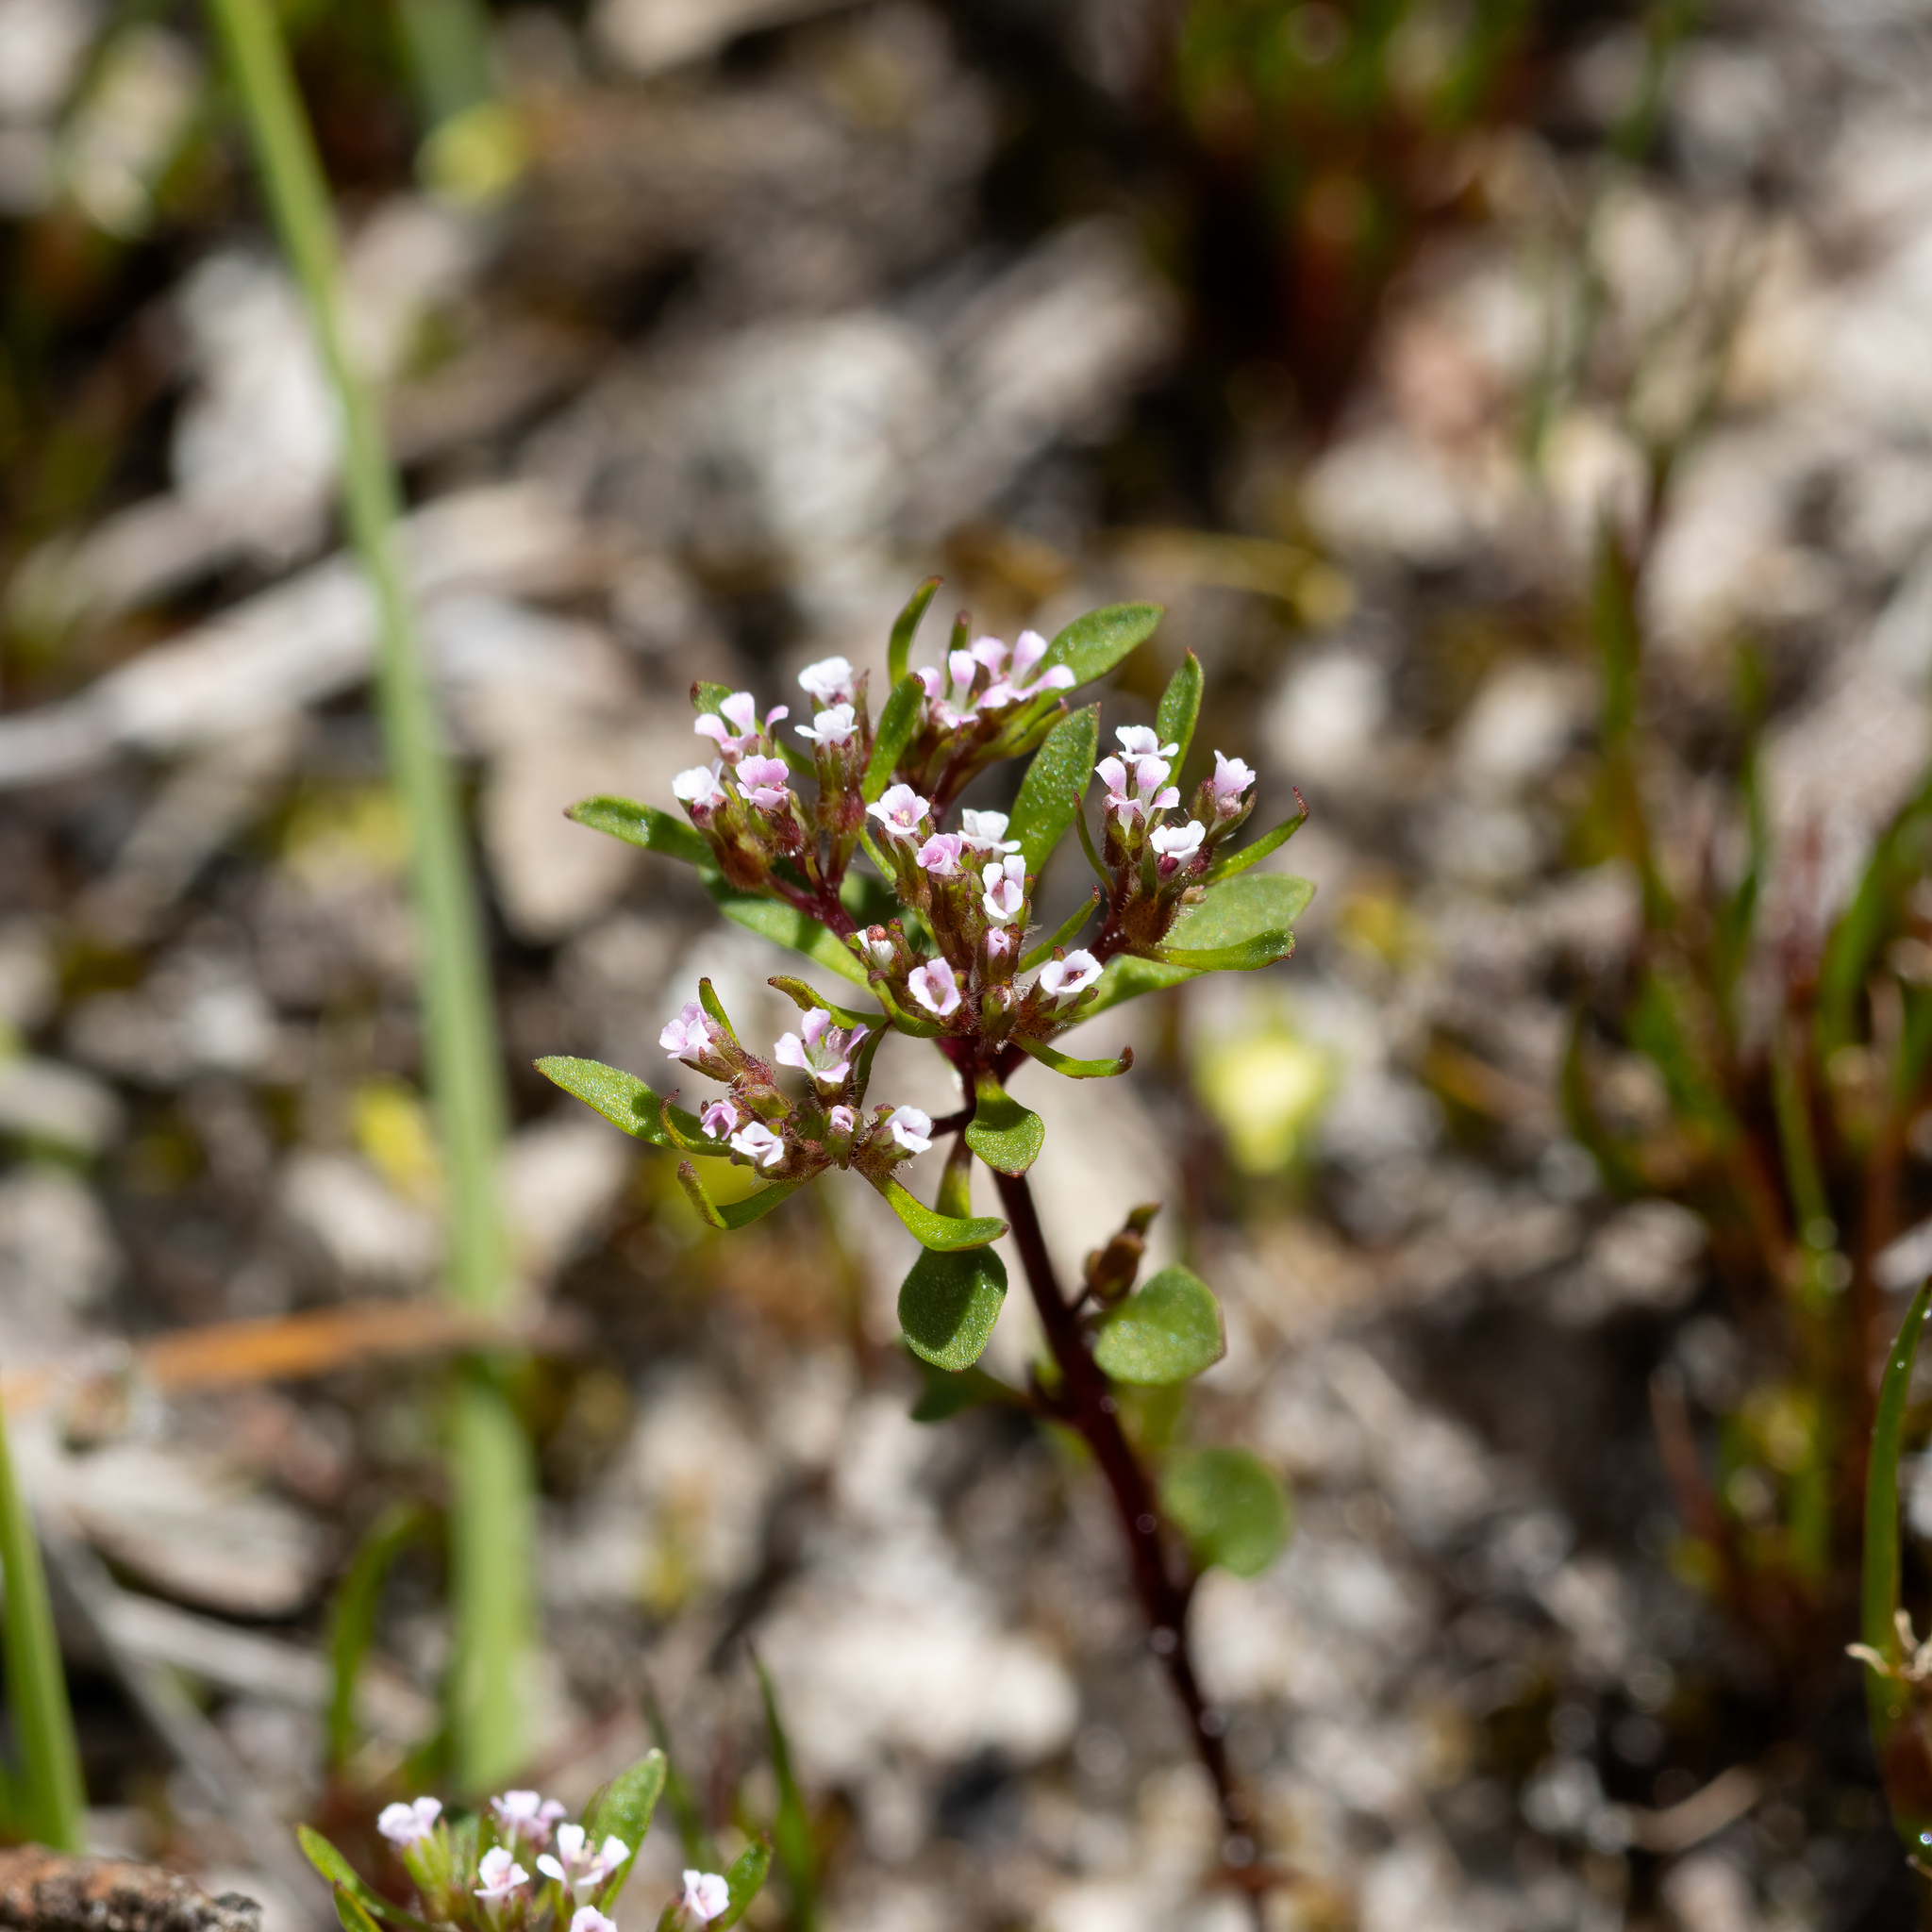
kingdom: Plantae
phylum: Tracheophyta
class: Magnoliopsida
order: Asterales
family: Stylidiaceae
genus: Levenhookia
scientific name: Levenhookia pusilla
